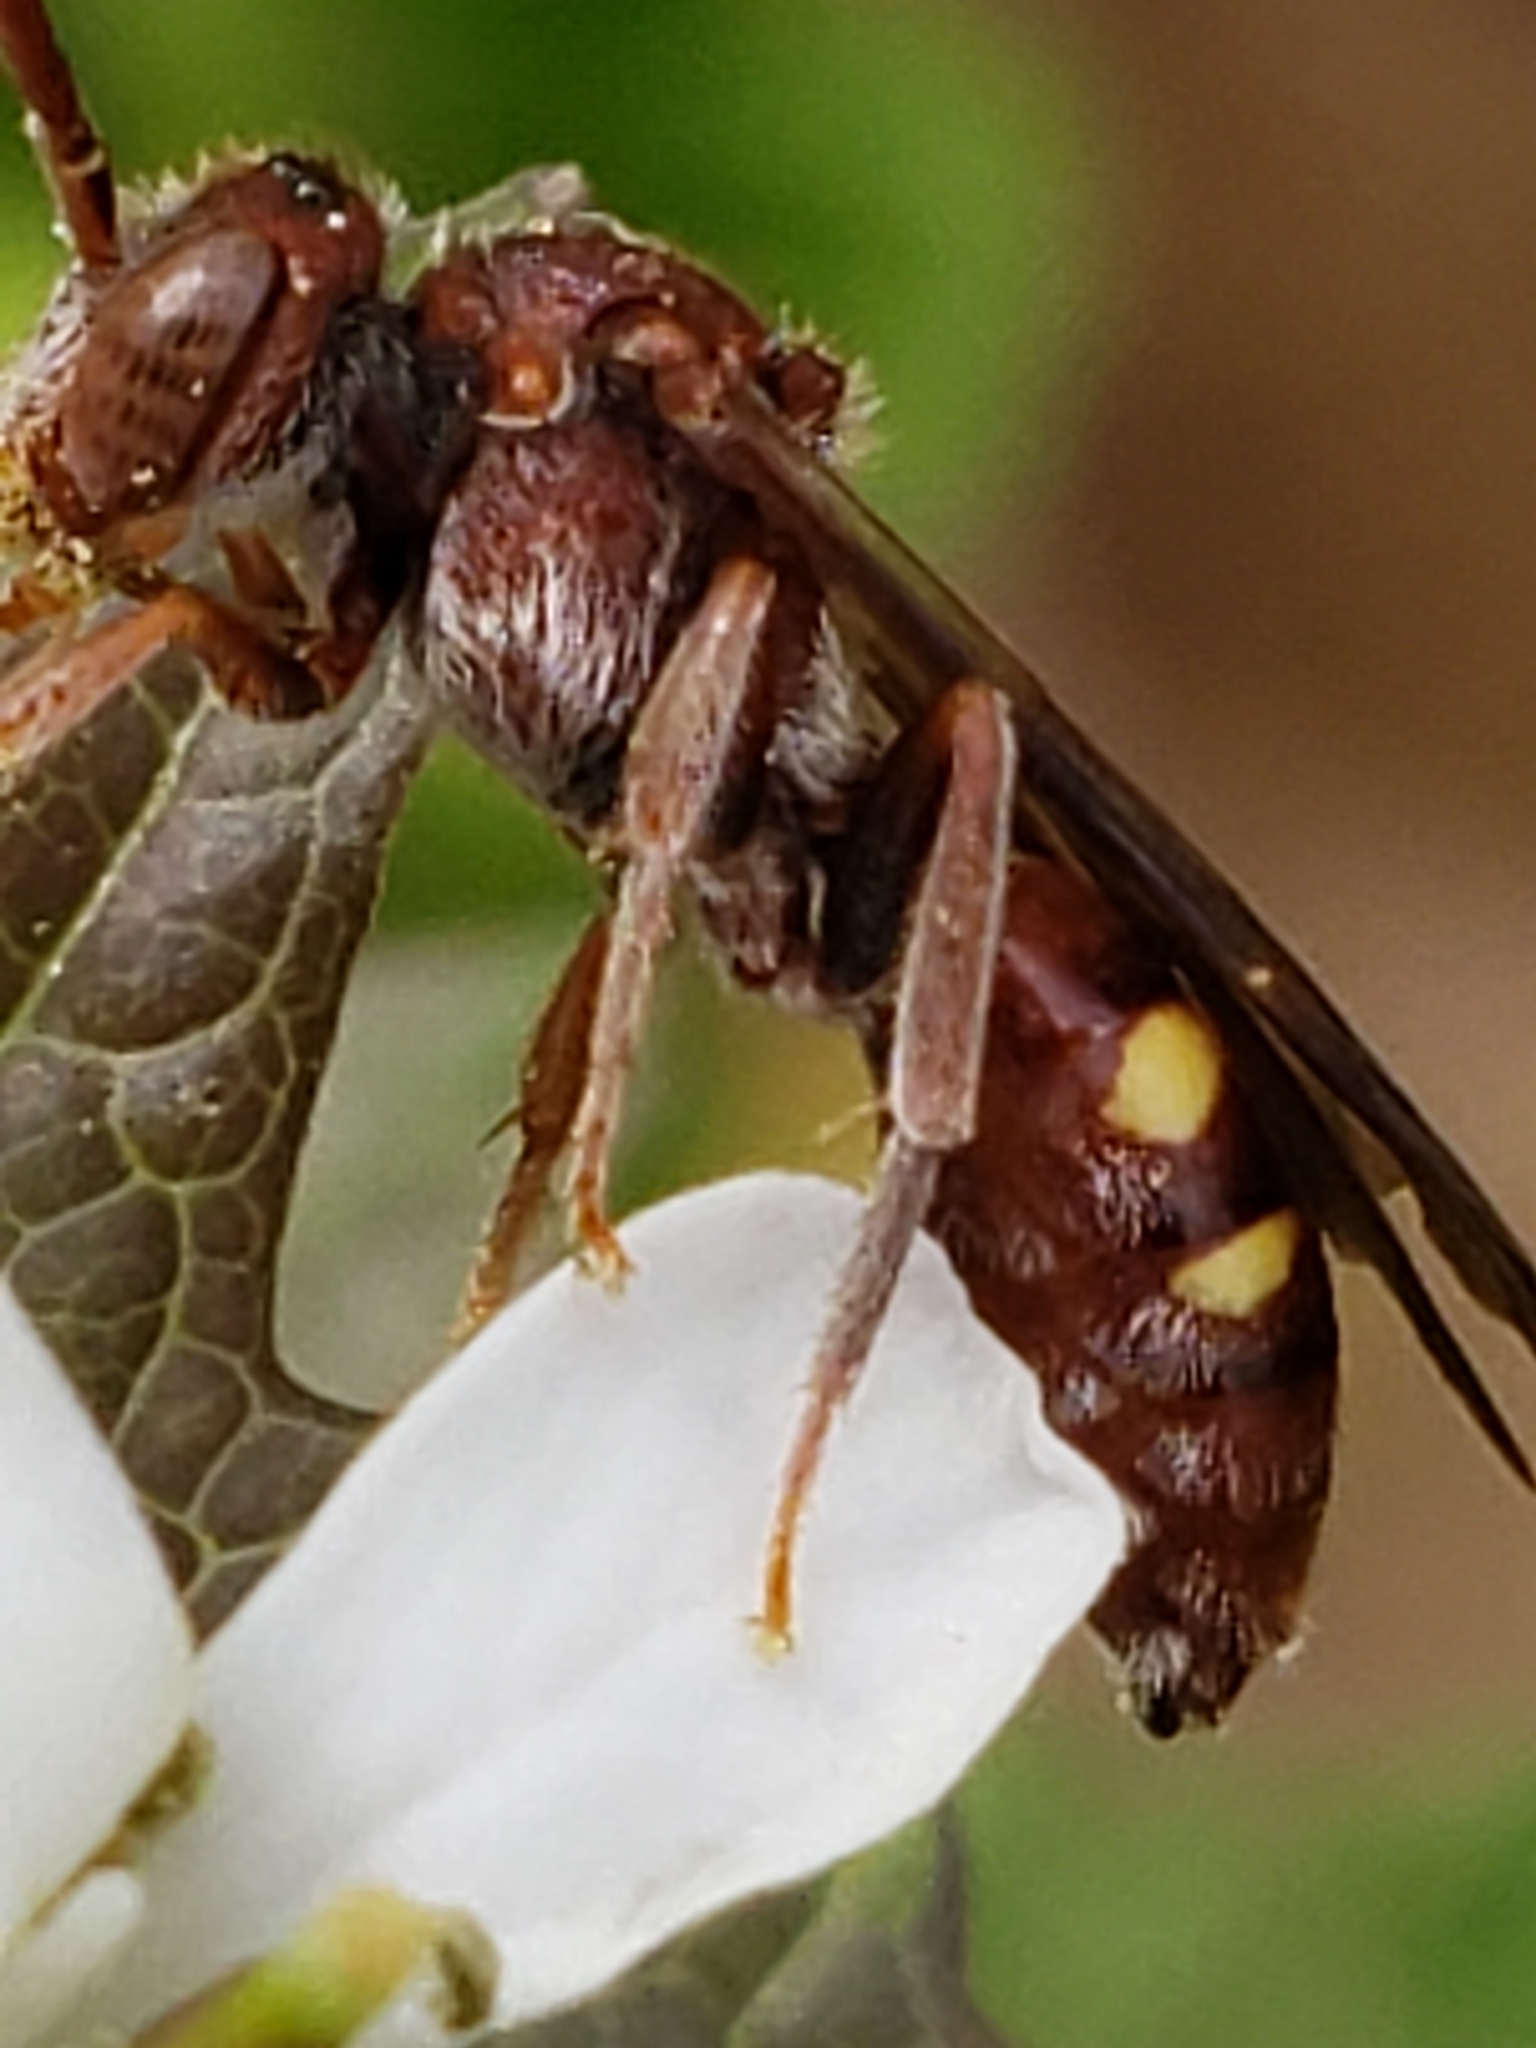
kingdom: Animalia
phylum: Arthropoda
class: Insecta
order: Hymenoptera
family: Apidae
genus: Nomada
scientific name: Nomada
